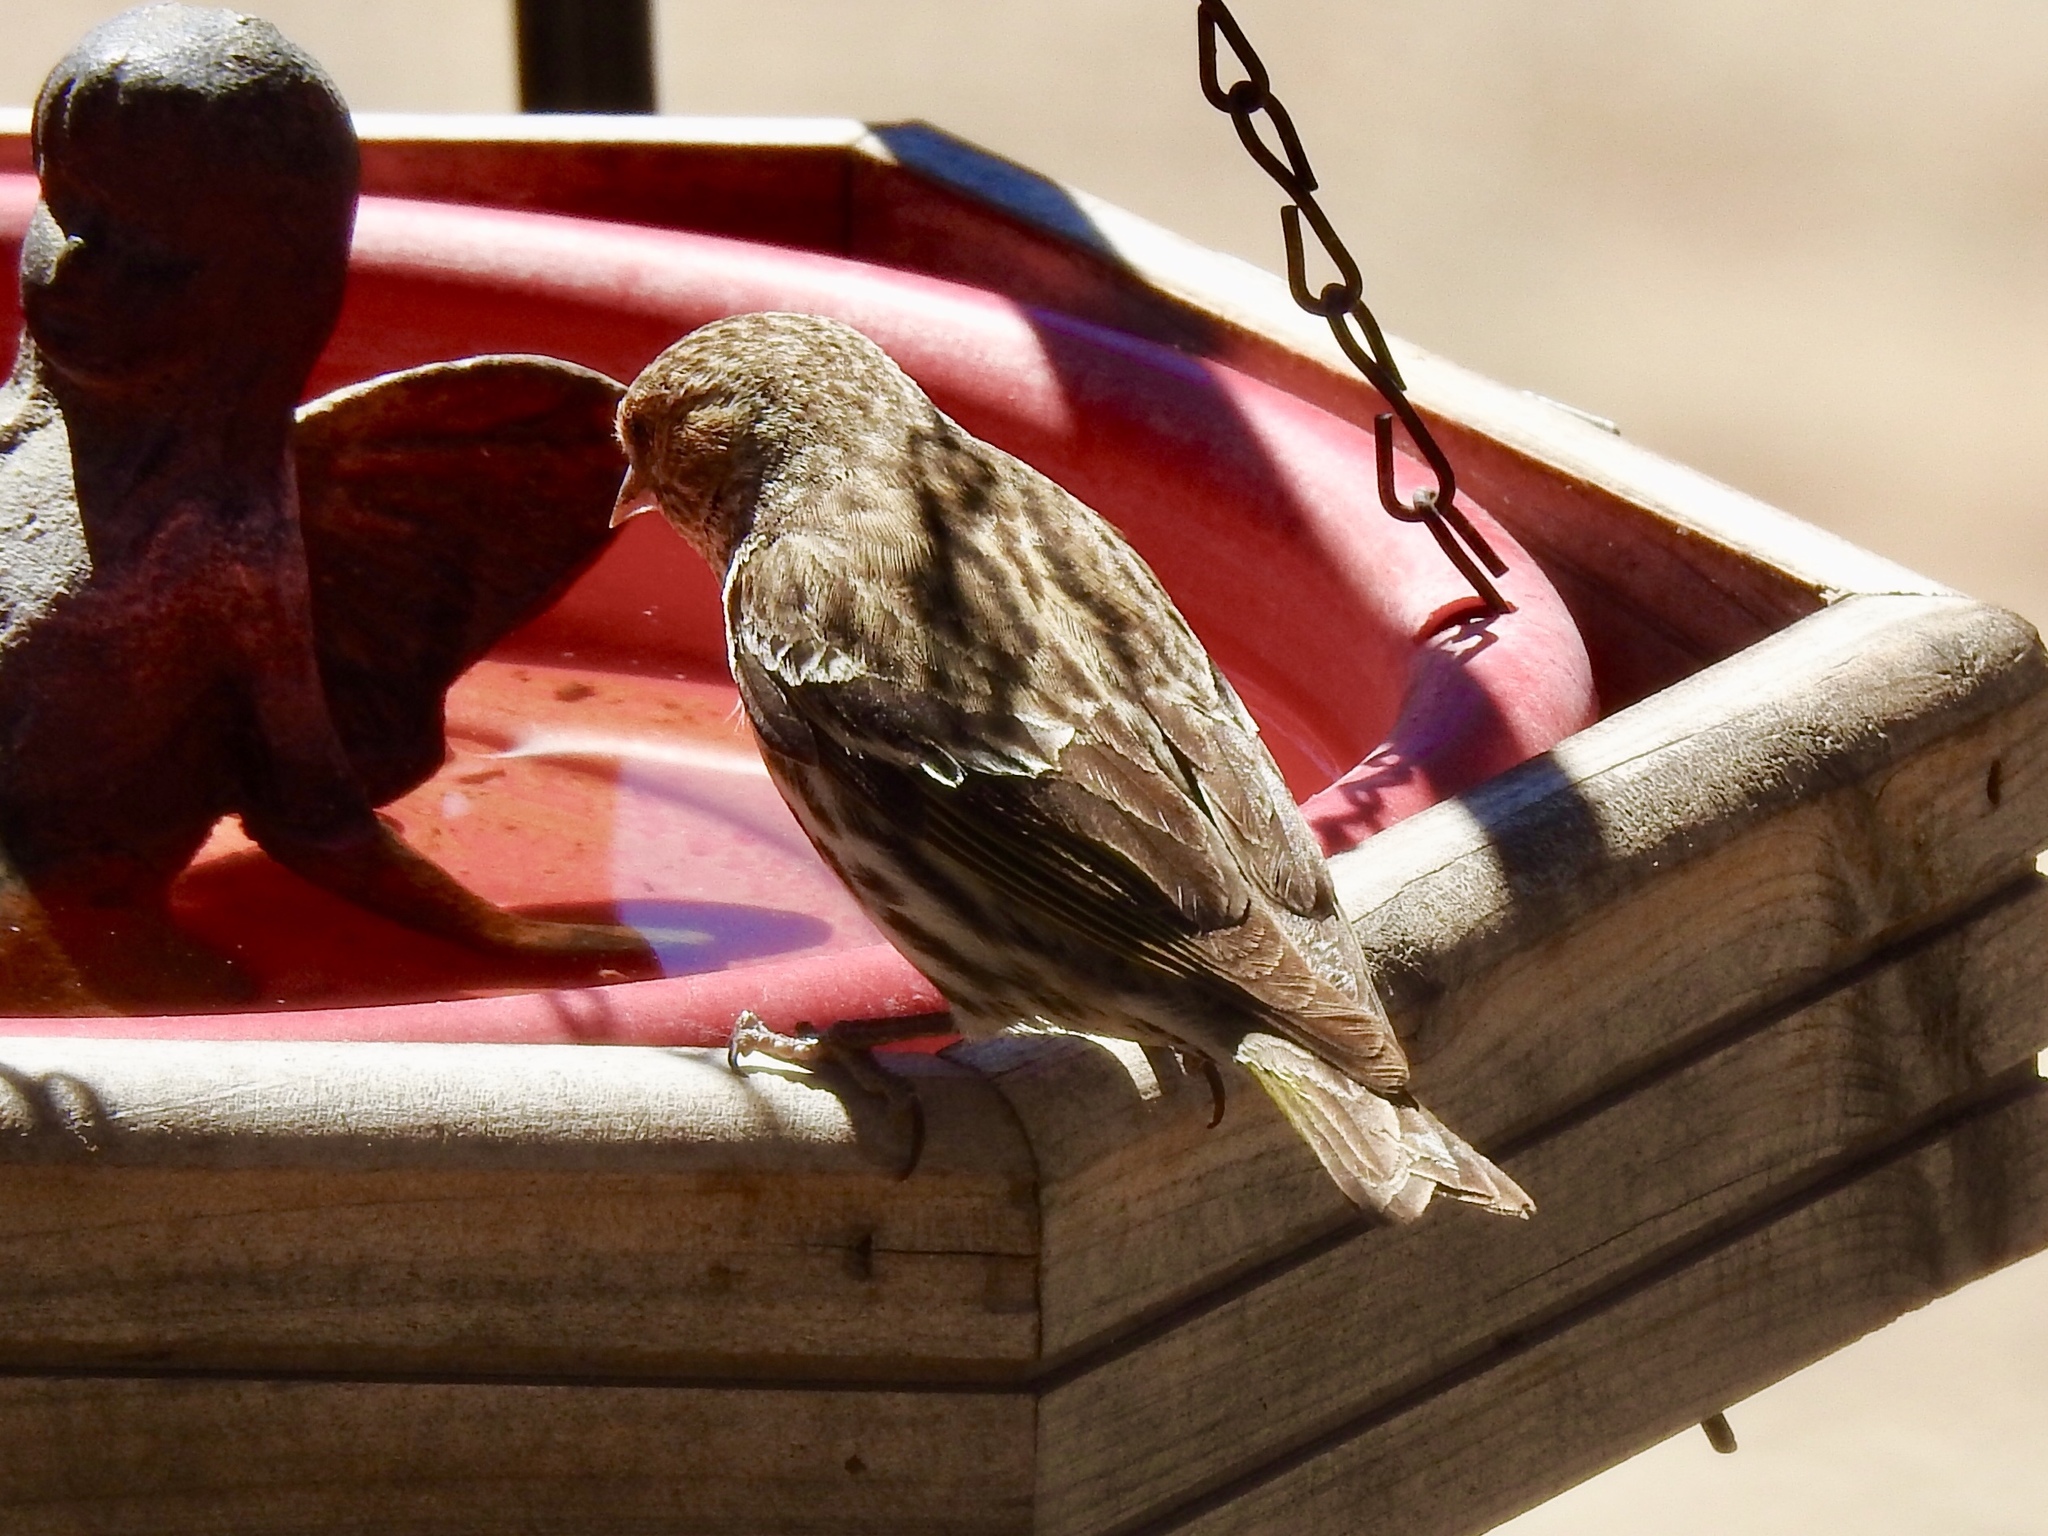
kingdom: Animalia
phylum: Chordata
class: Aves
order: Passeriformes
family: Fringillidae
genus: Spinus
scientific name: Spinus pinus
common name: Pine siskin
